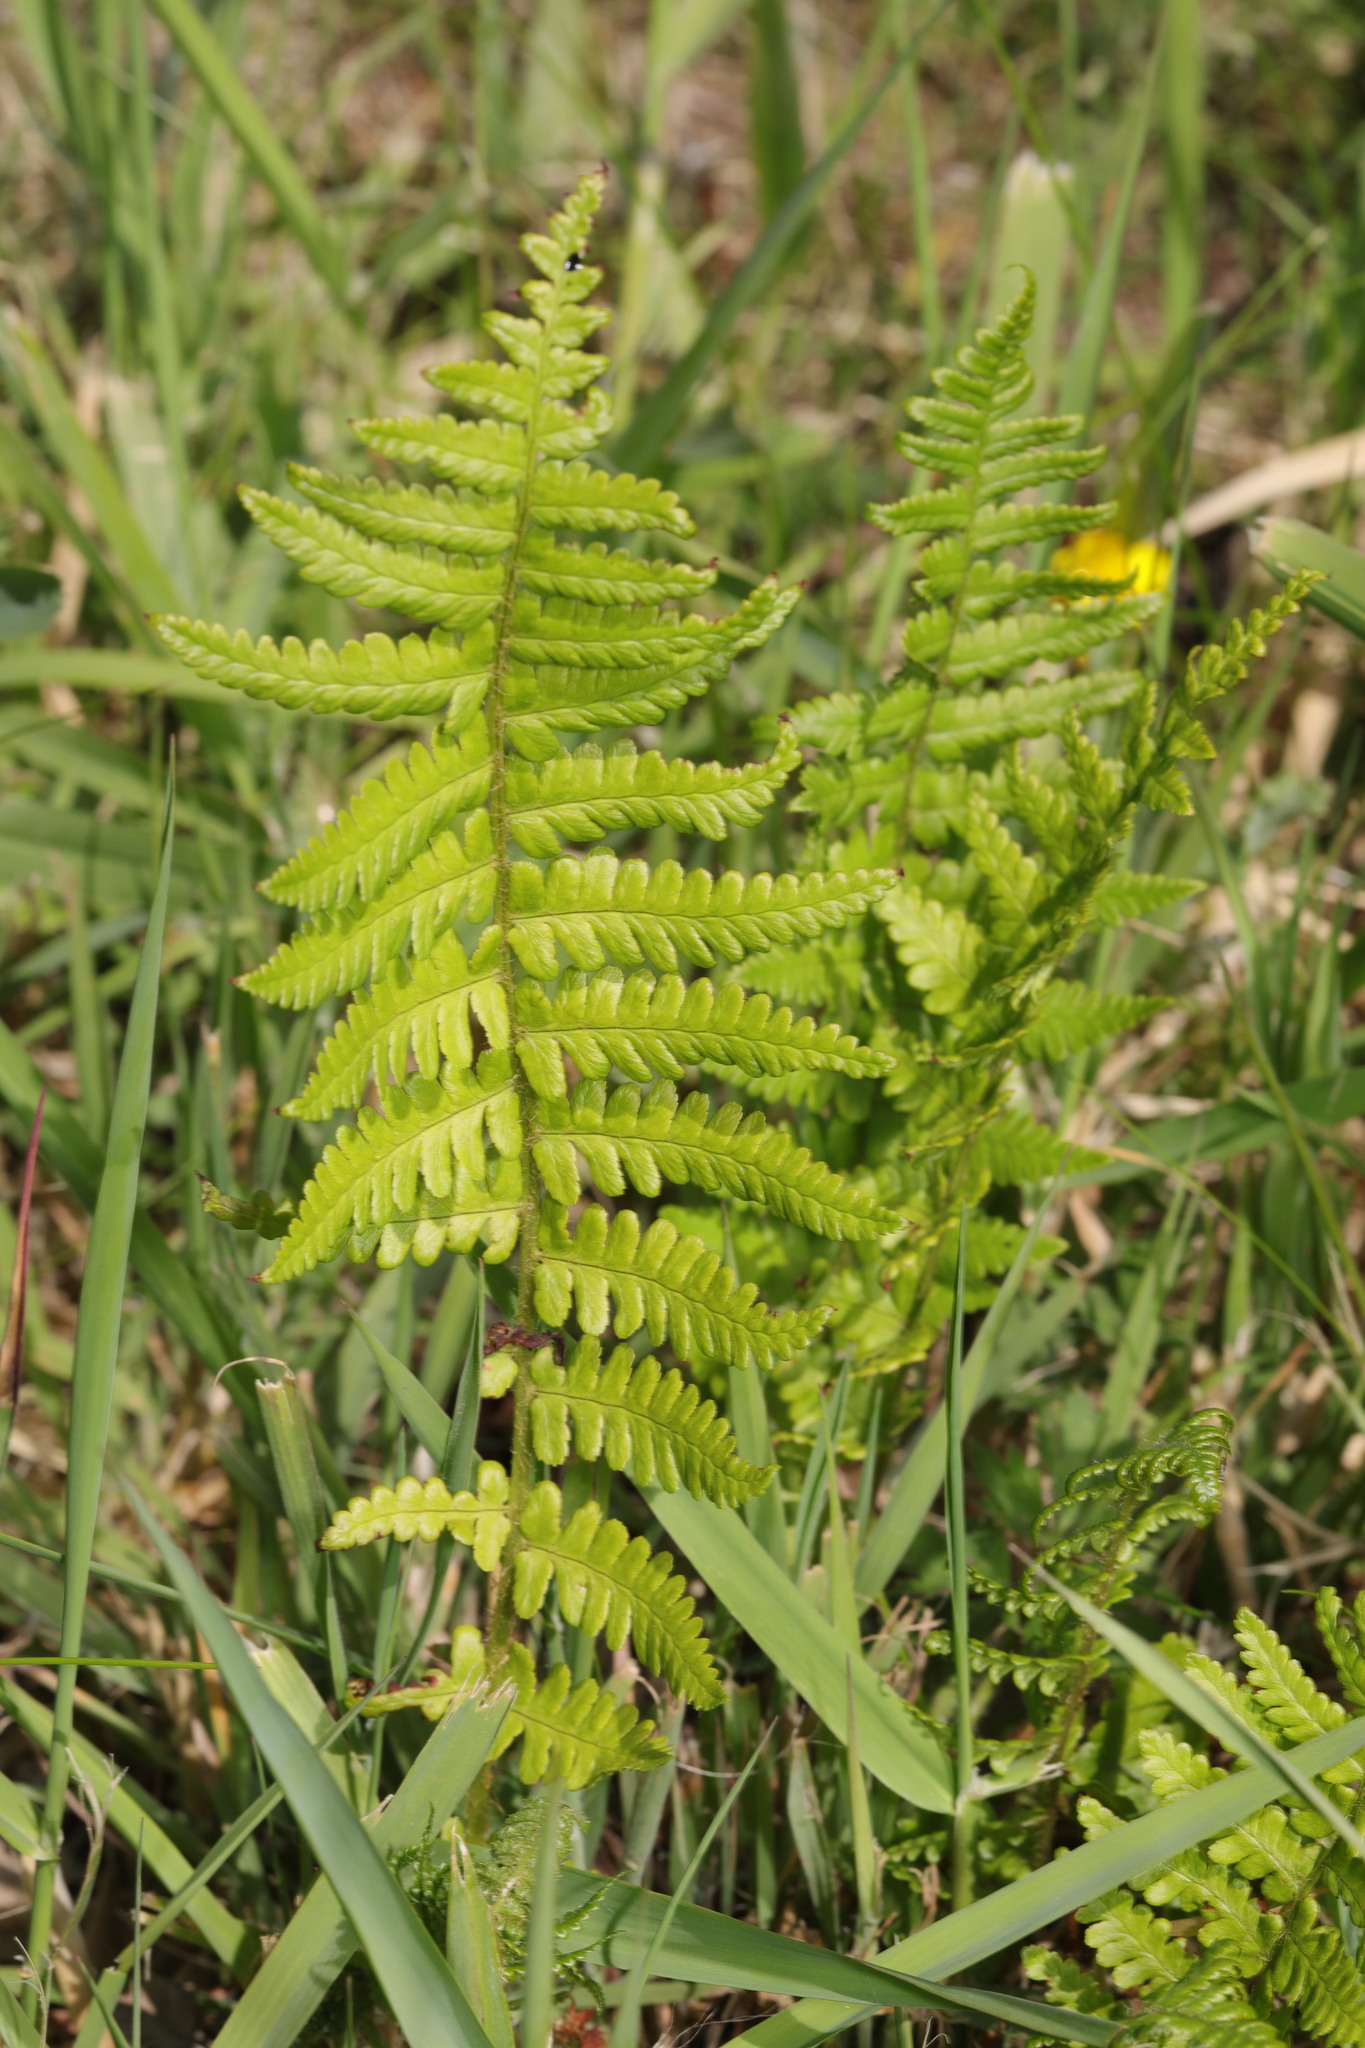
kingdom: Plantae
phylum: Tracheophyta
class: Polypodiopsida
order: Polypodiales
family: Dryopteridaceae
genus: Dryopteris
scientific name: Dryopteris filix-mas
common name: Male fern
